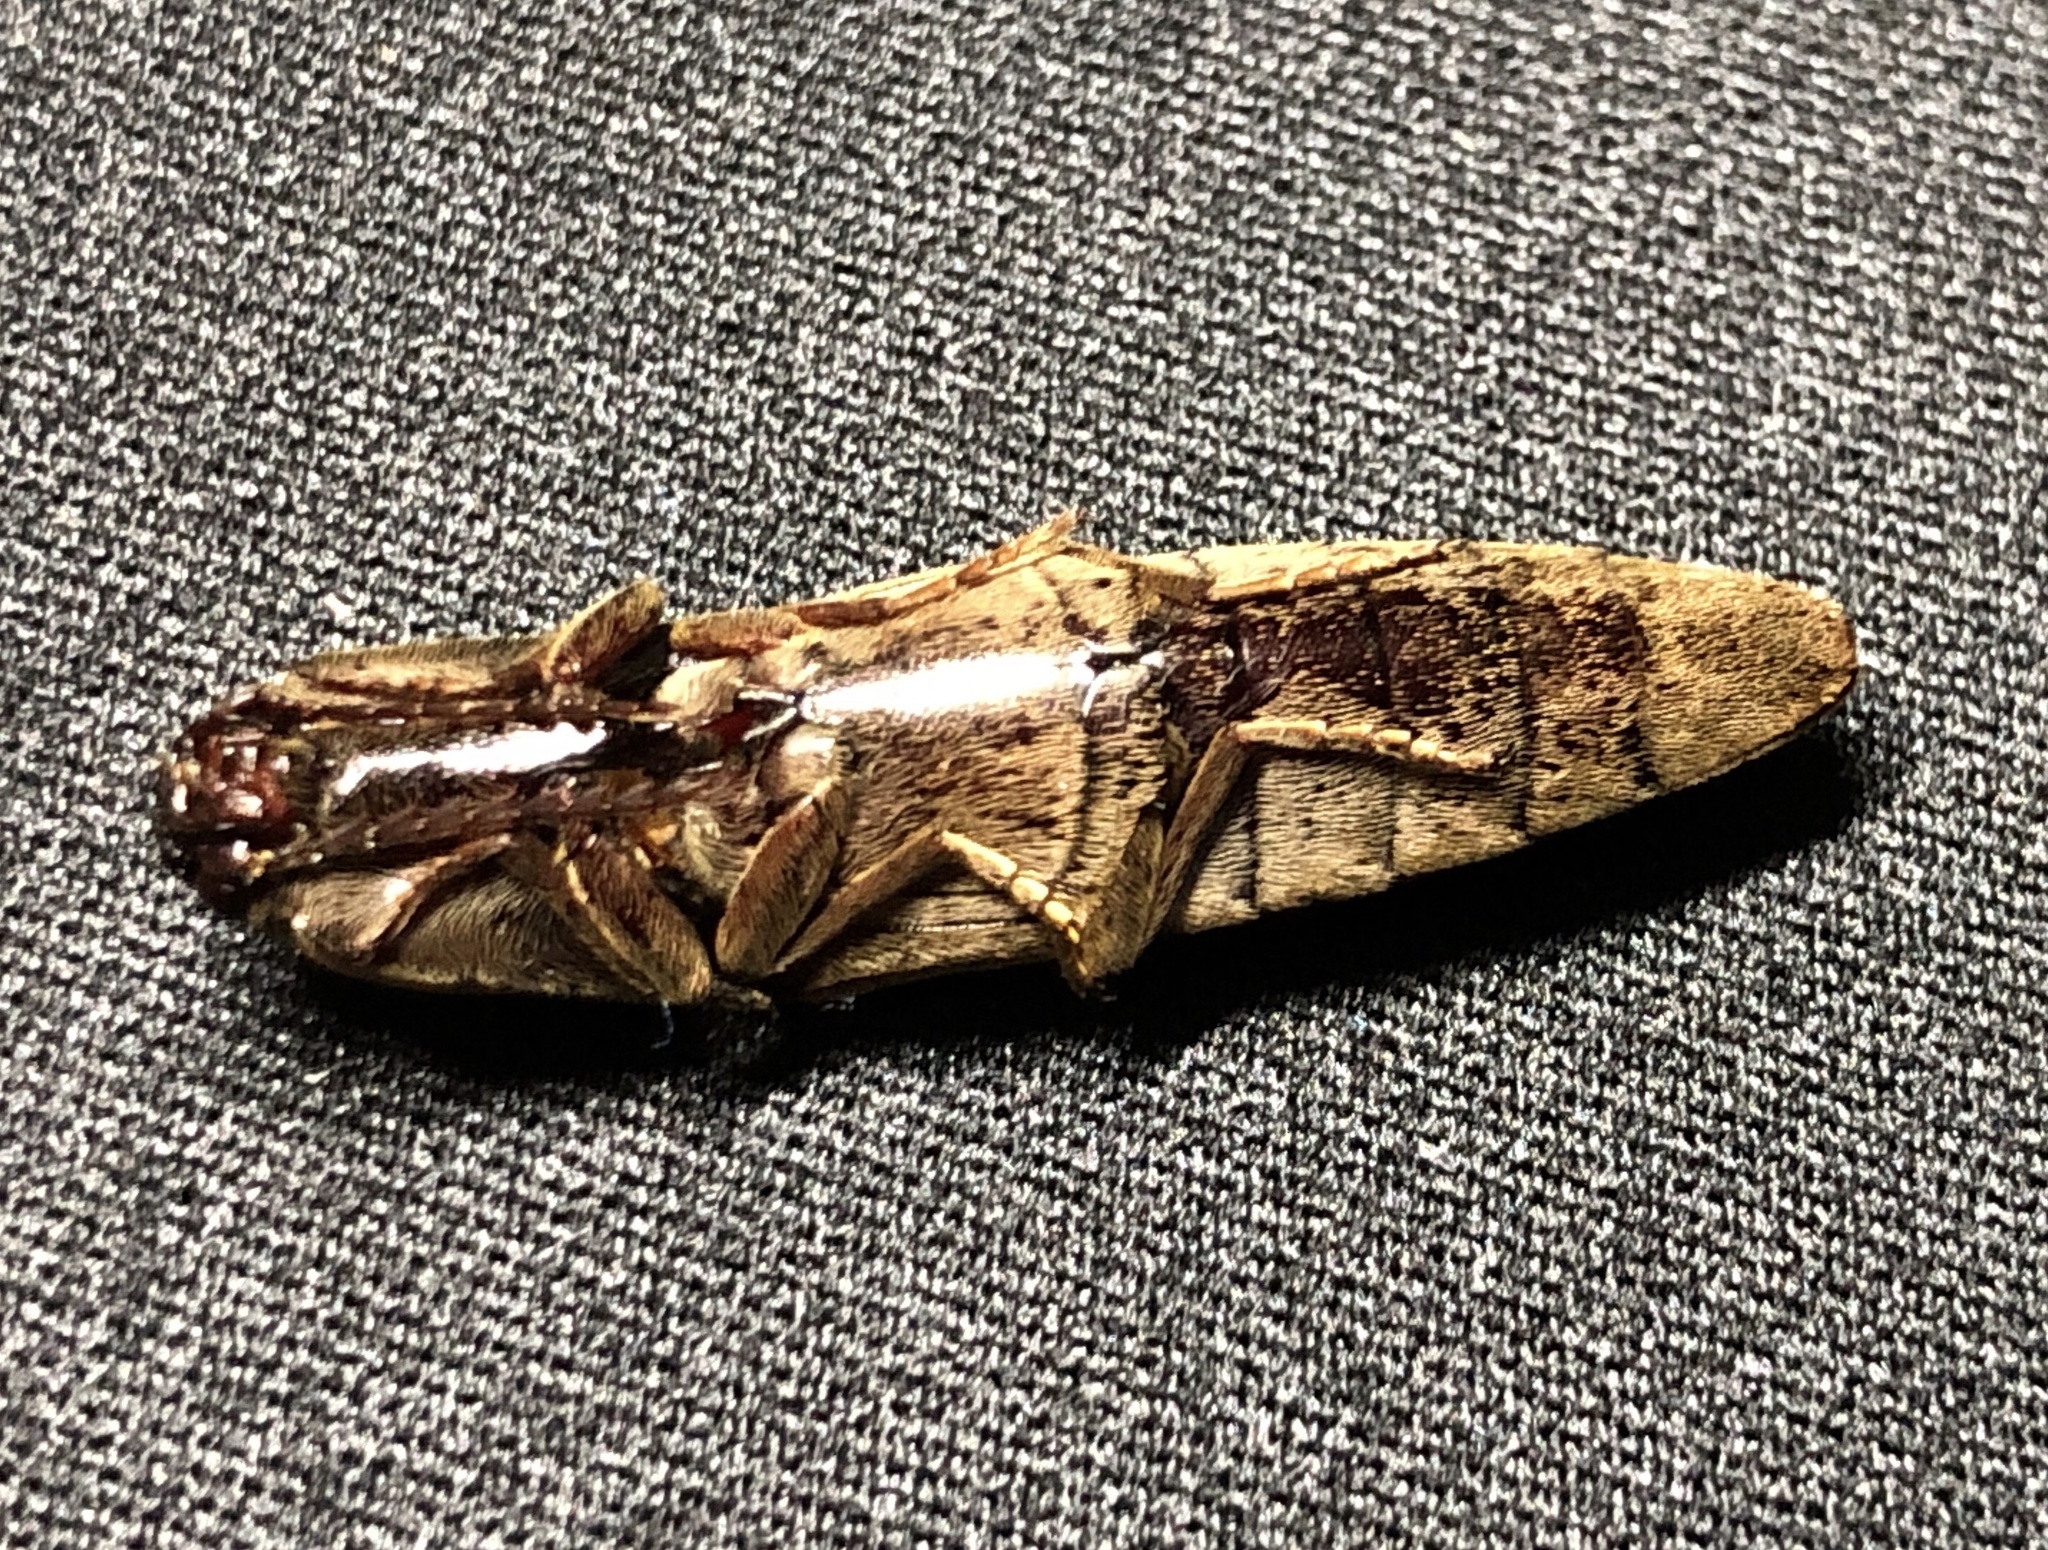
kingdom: Animalia
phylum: Arthropoda
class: Insecta
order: Coleoptera
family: Elateridae
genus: Orthostethus
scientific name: Orthostethus infuscatus
